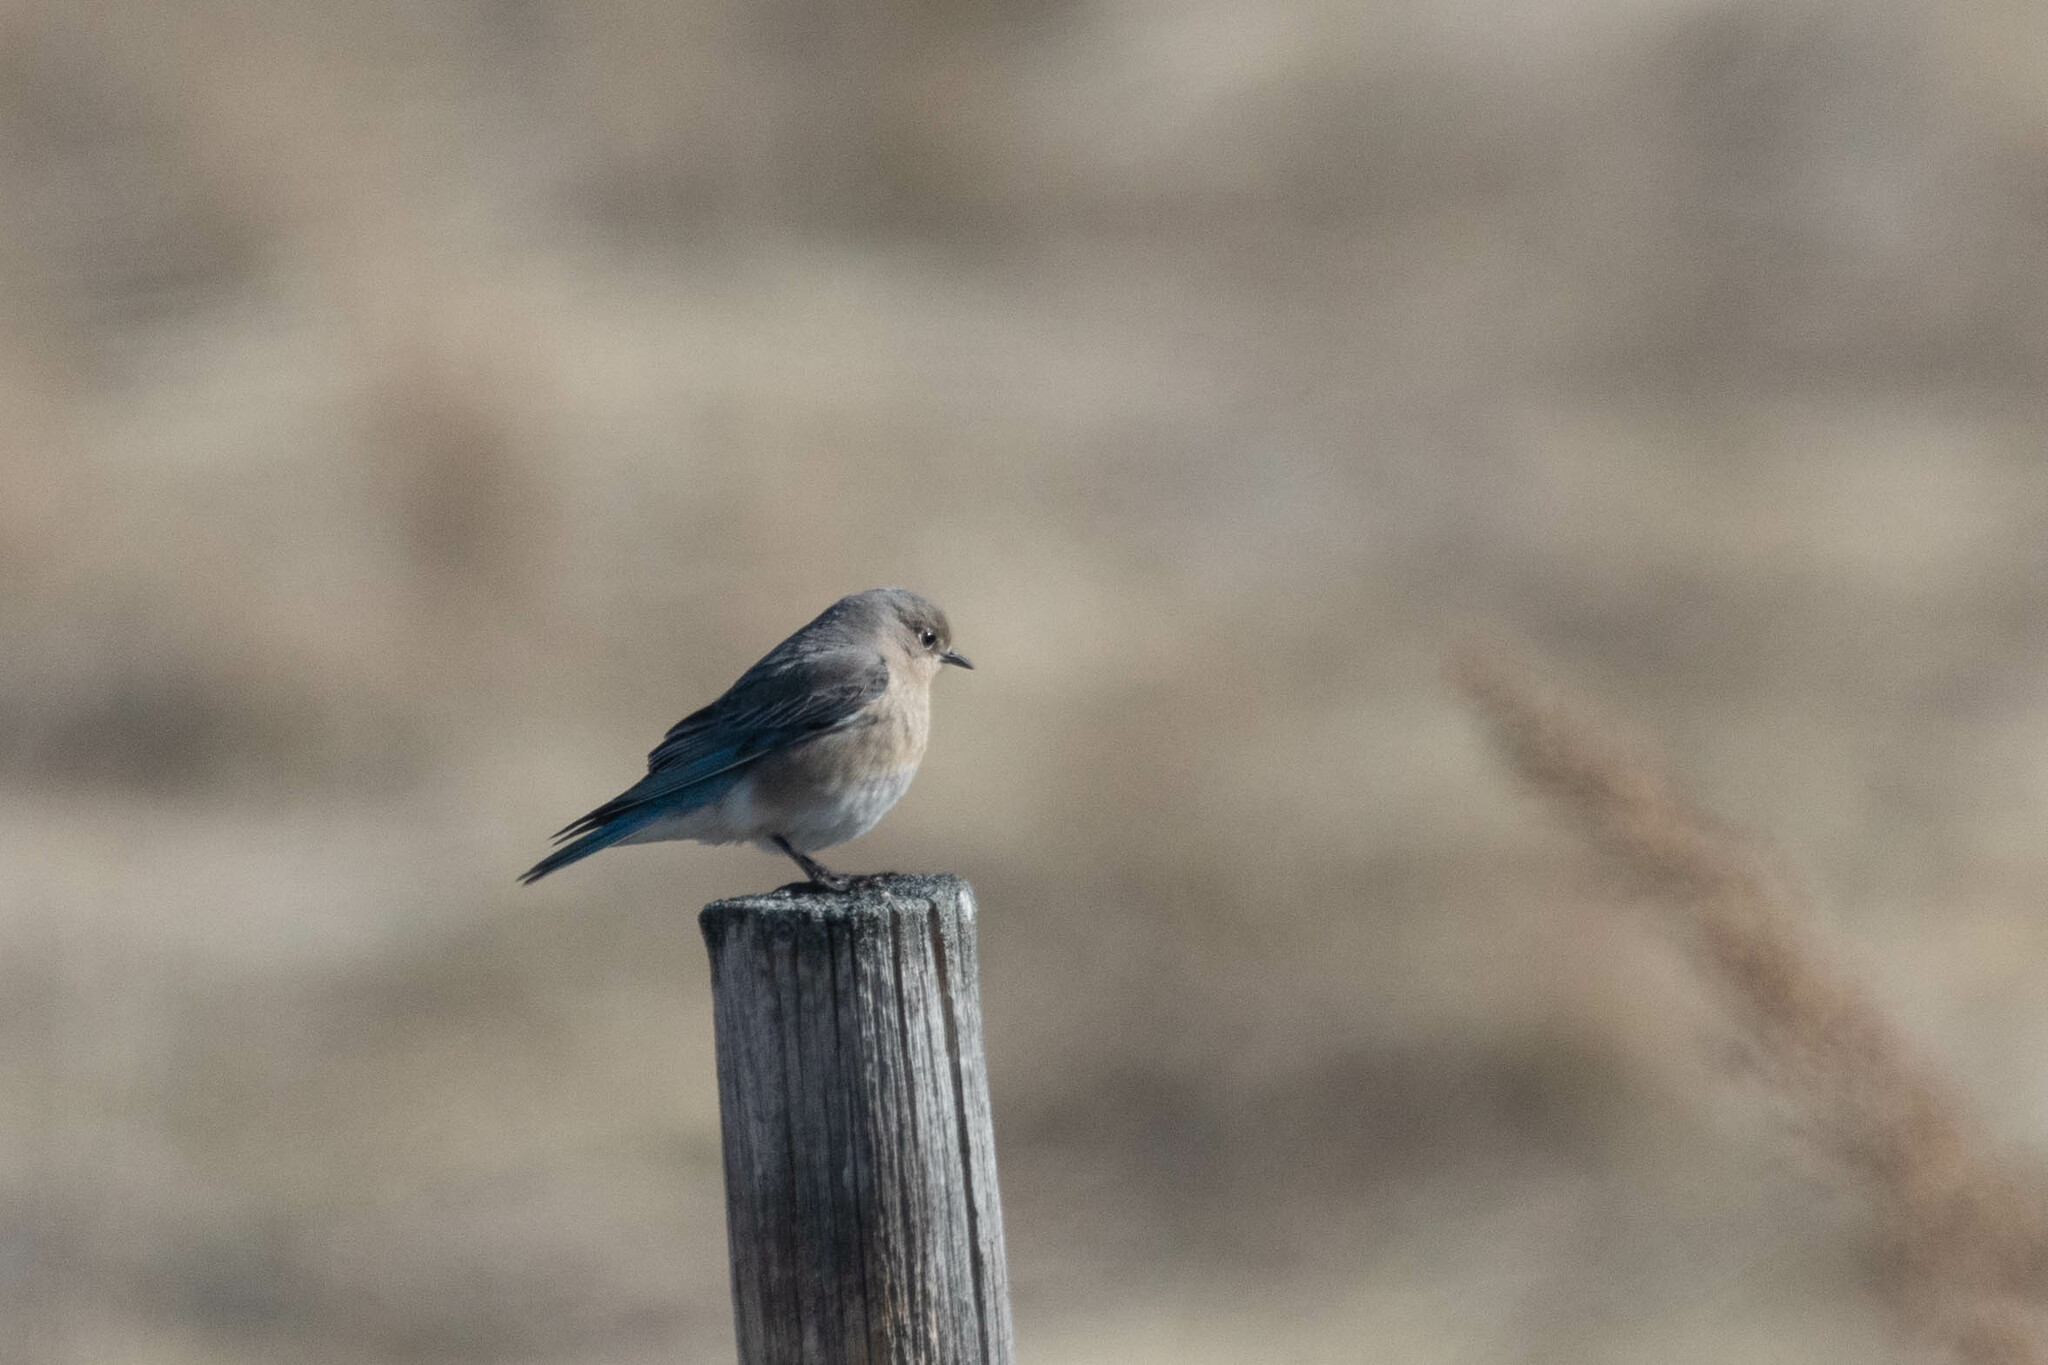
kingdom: Animalia
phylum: Chordata
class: Aves
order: Passeriformes
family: Turdidae
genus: Sialia
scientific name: Sialia currucoides
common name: Mountain bluebird
